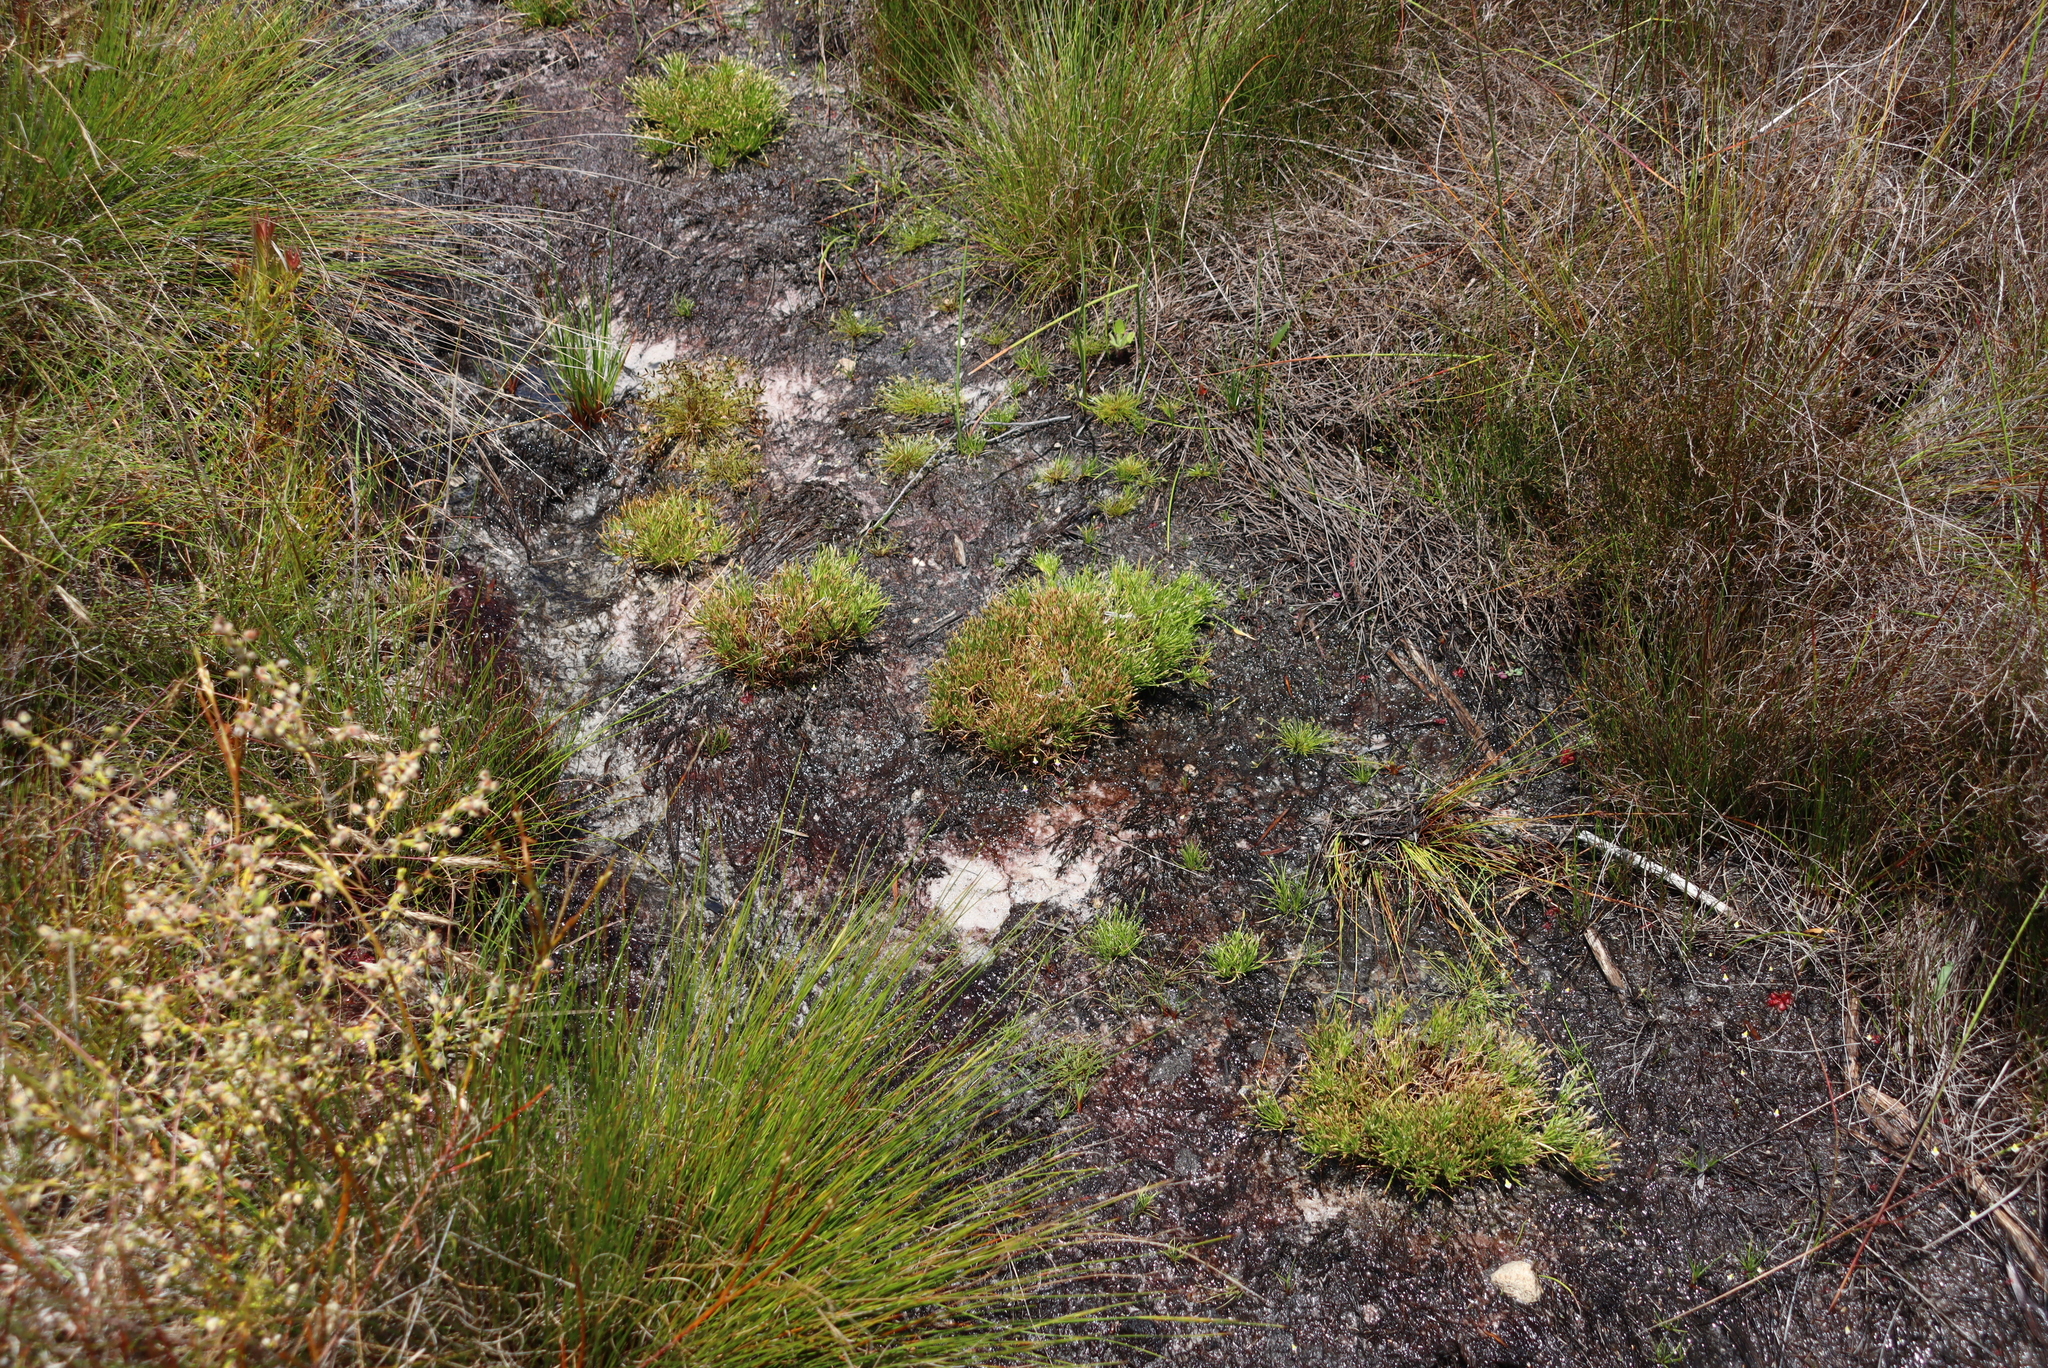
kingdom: Plantae
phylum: Tracheophyta
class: Liliopsida
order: Poales
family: Cyperaceae
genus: Isolepis
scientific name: Isolepis ludwigii
